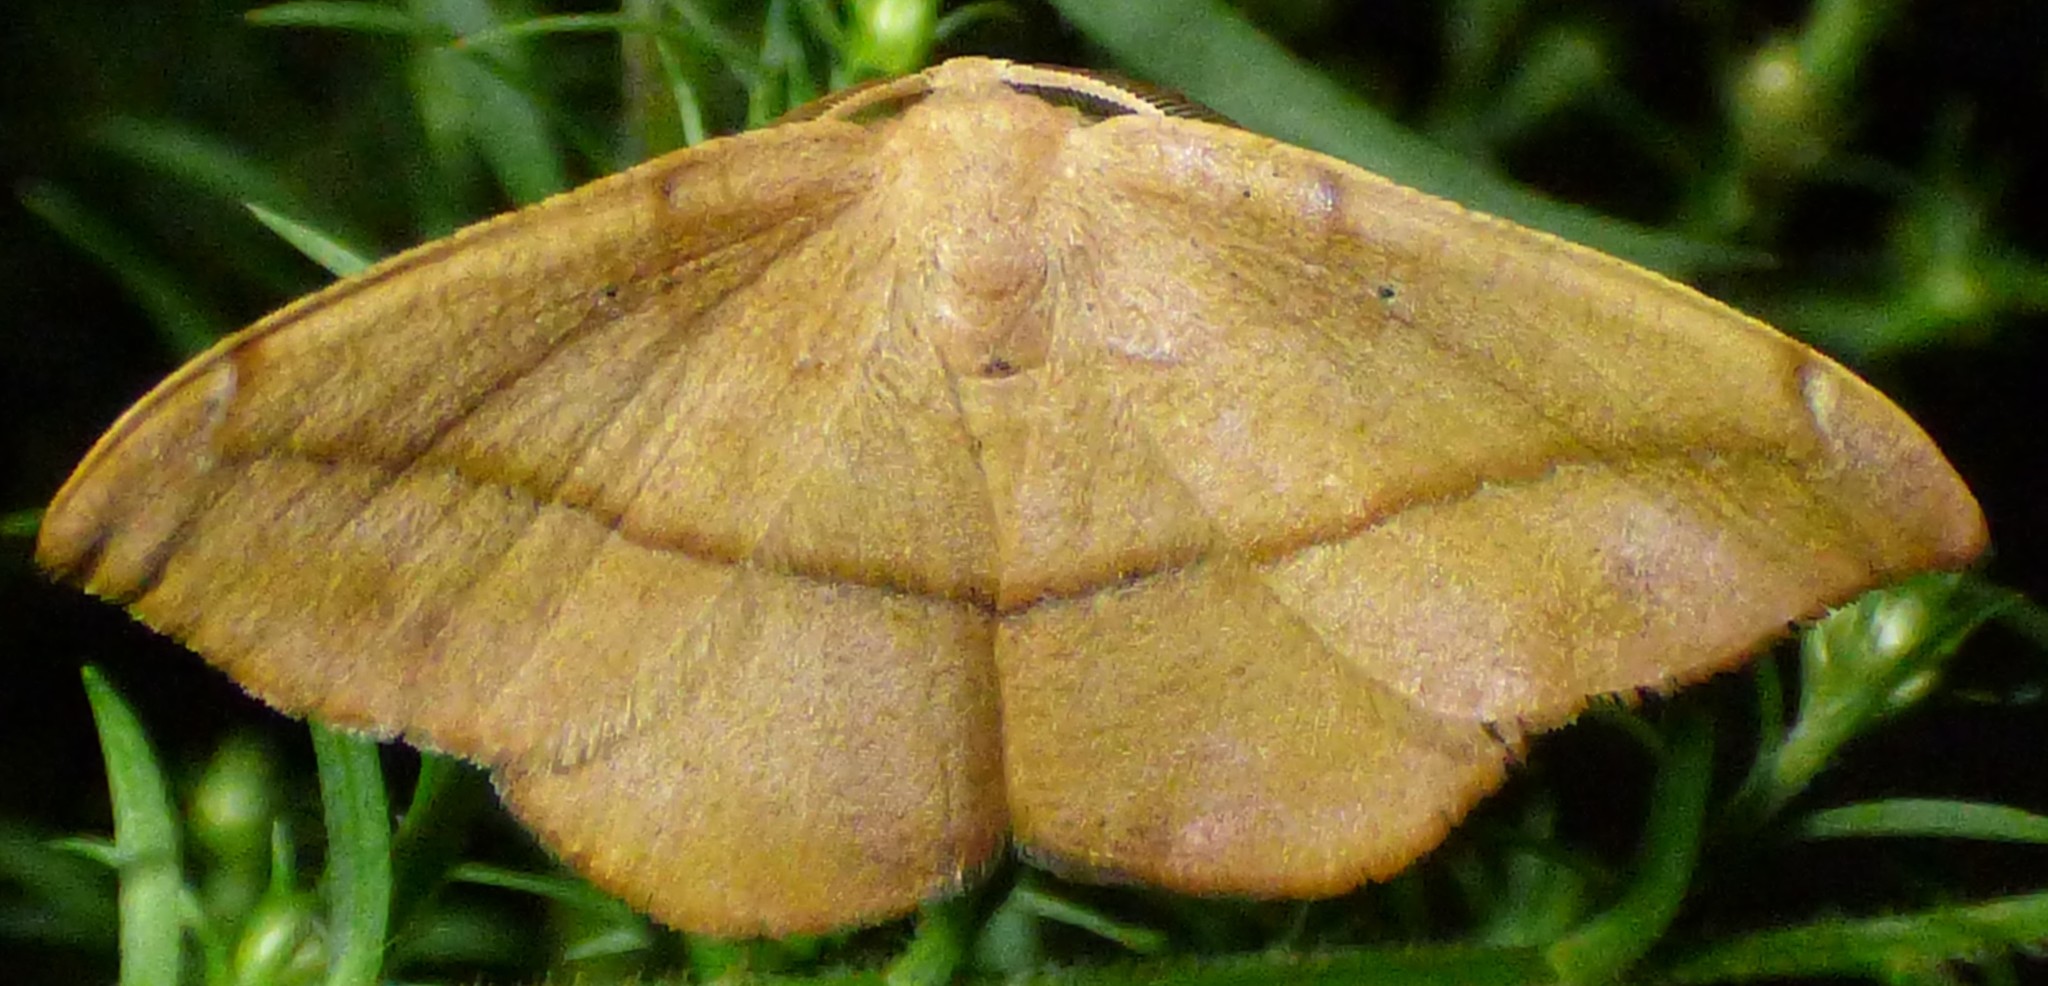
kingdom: Animalia
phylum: Arthropoda
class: Insecta
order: Lepidoptera
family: Geometridae
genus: Patalene
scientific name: Patalene olyzonaria
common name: Juniper geometer moth
